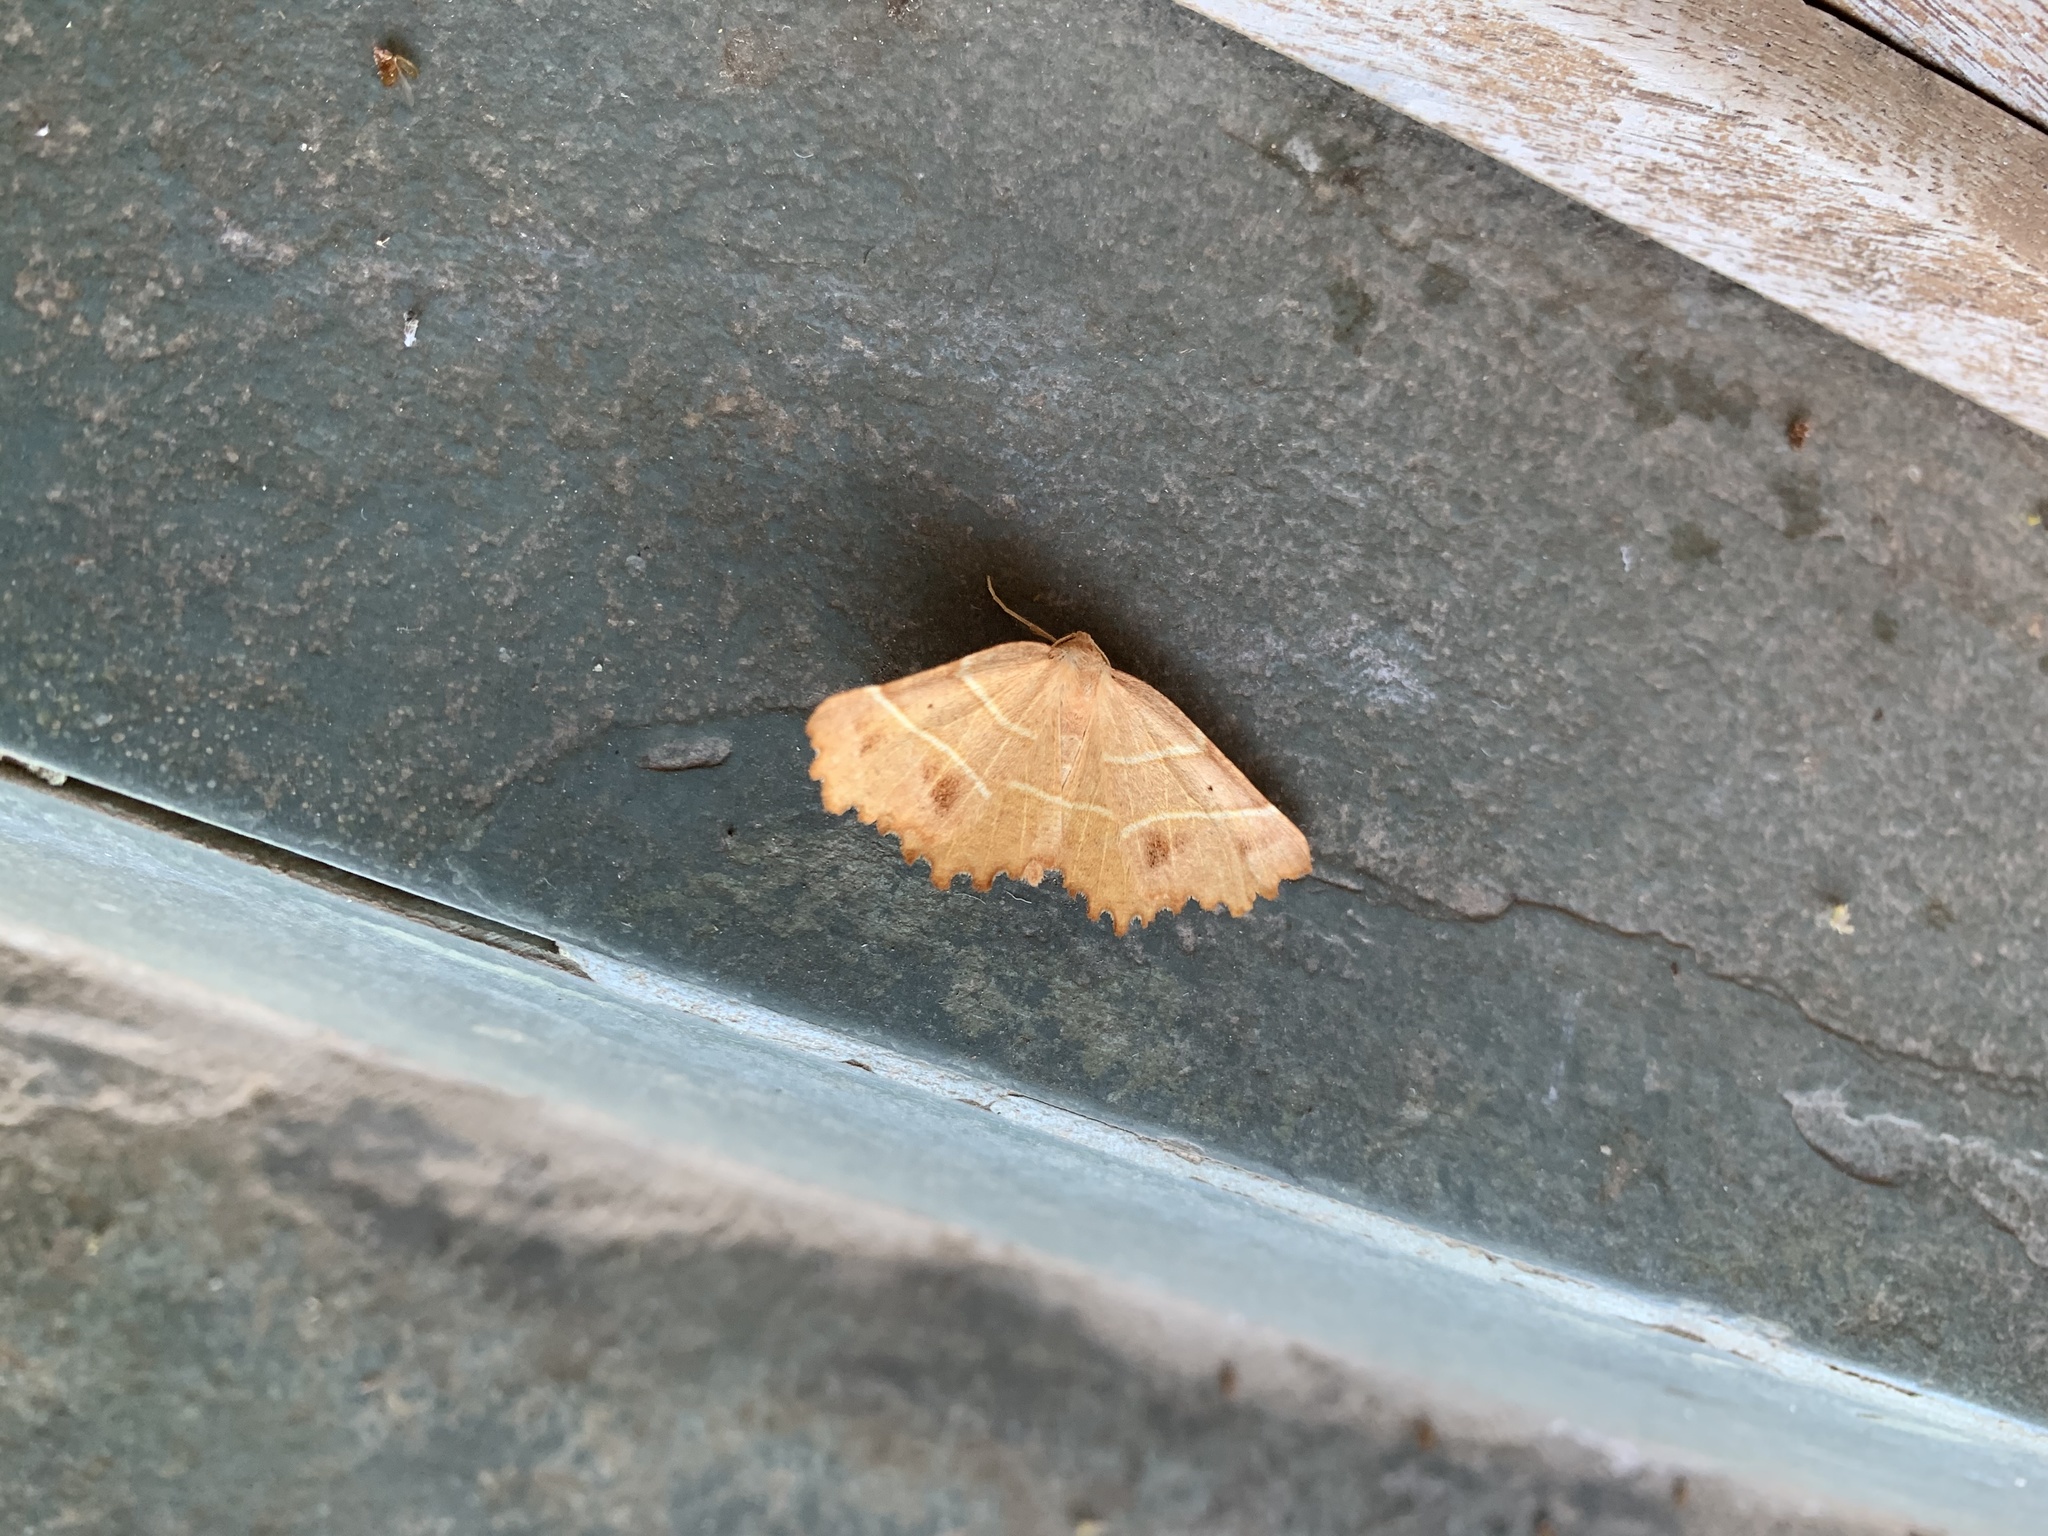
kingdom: Animalia
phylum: Arthropoda
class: Insecta
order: Lepidoptera
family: Geometridae
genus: Microclysia
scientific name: Microclysia pristopera
